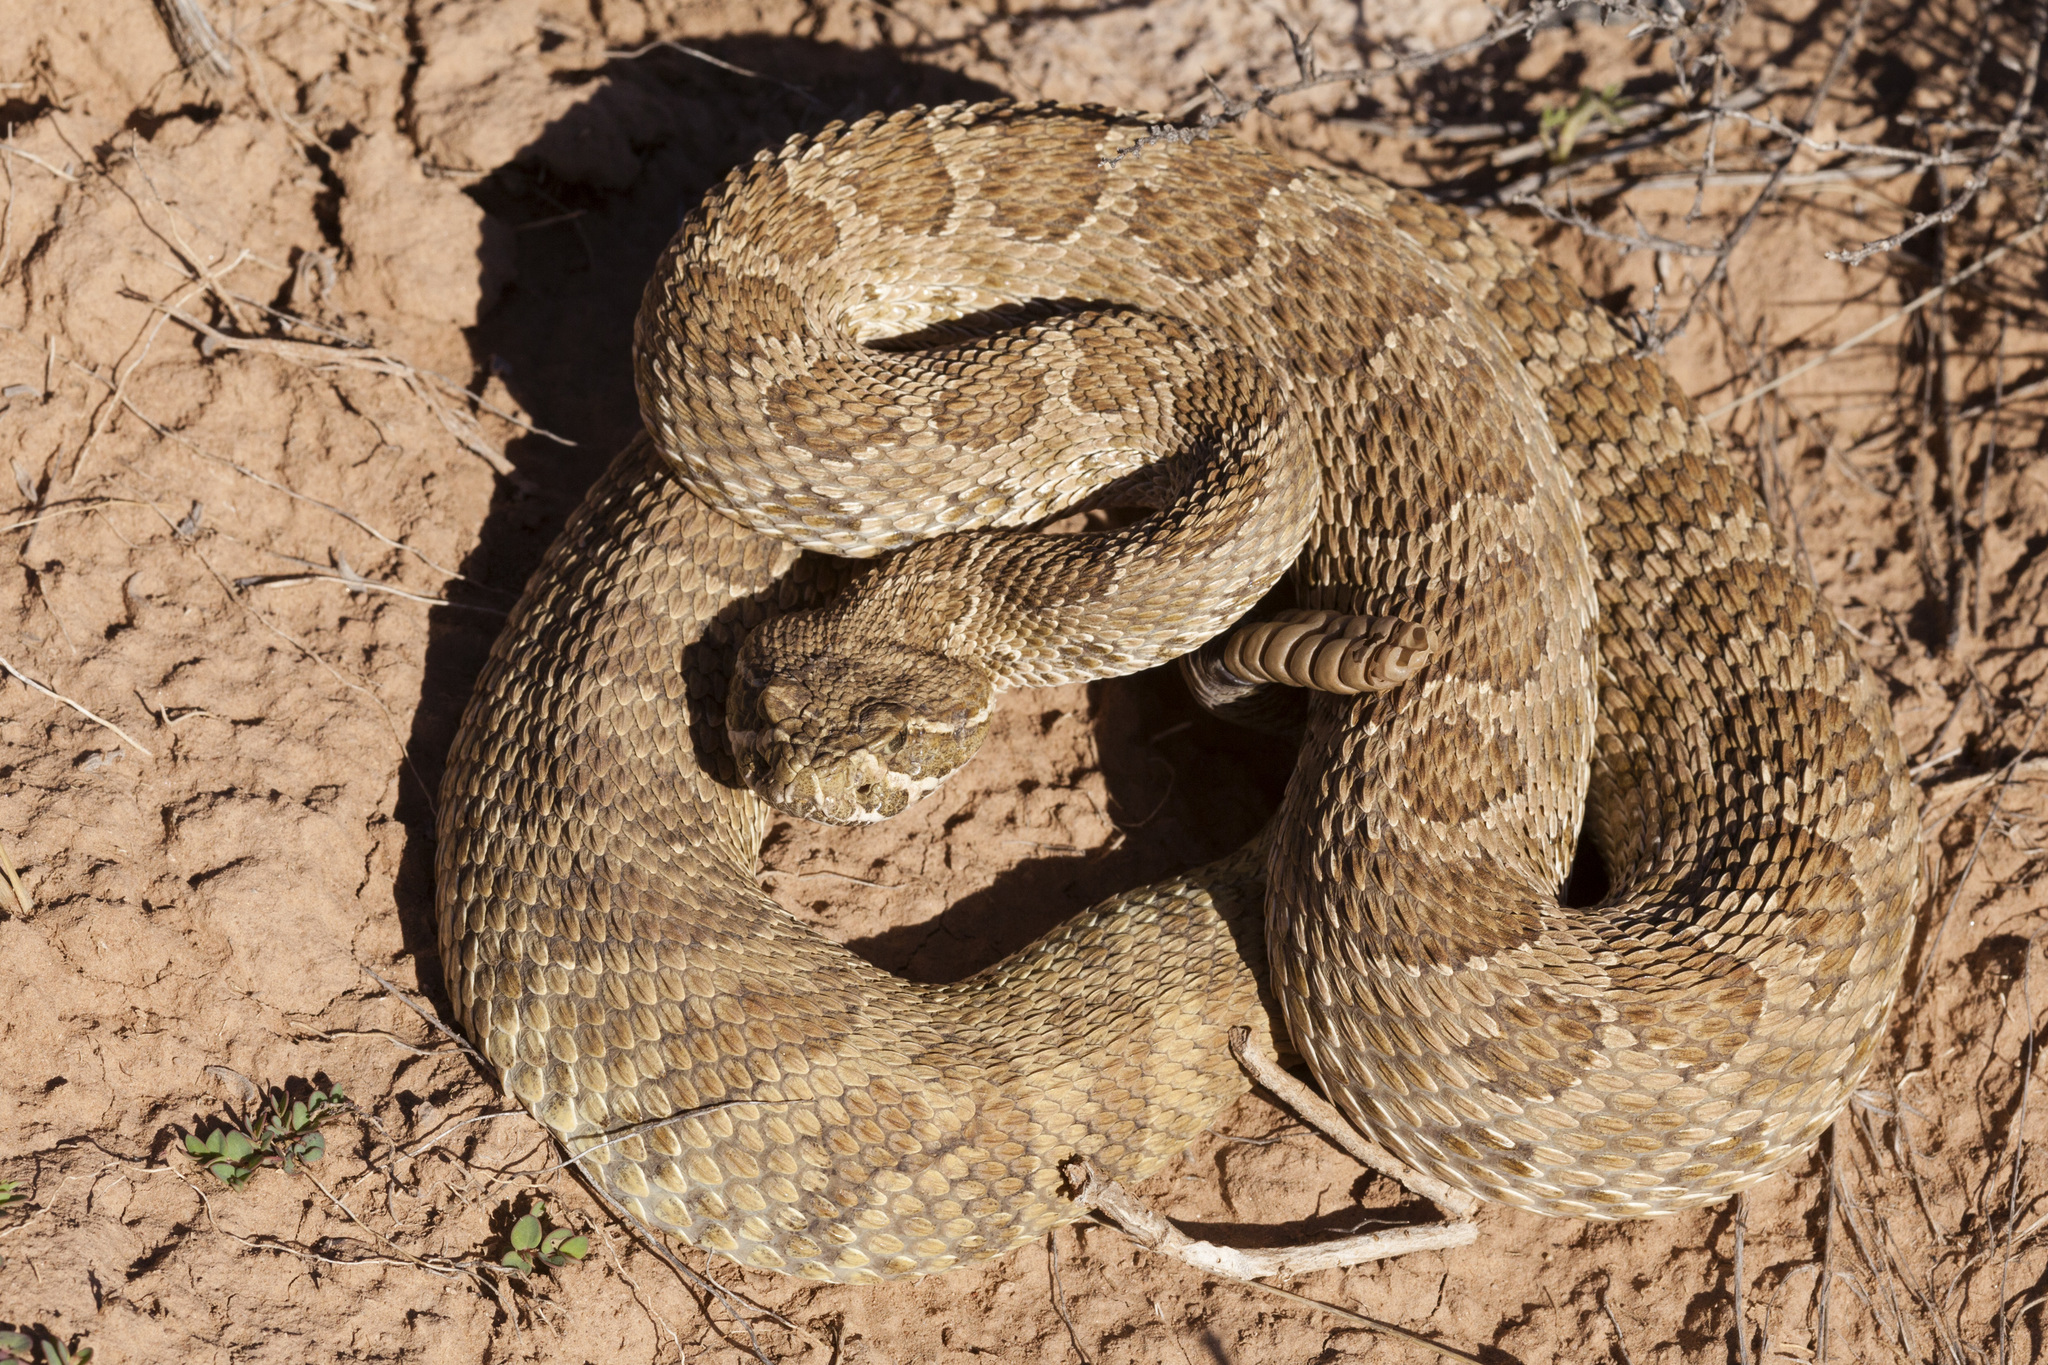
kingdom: Animalia
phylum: Chordata
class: Squamata
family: Viperidae
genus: Crotalus
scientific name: Crotalus viridis
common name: Prairie rattlesnake
